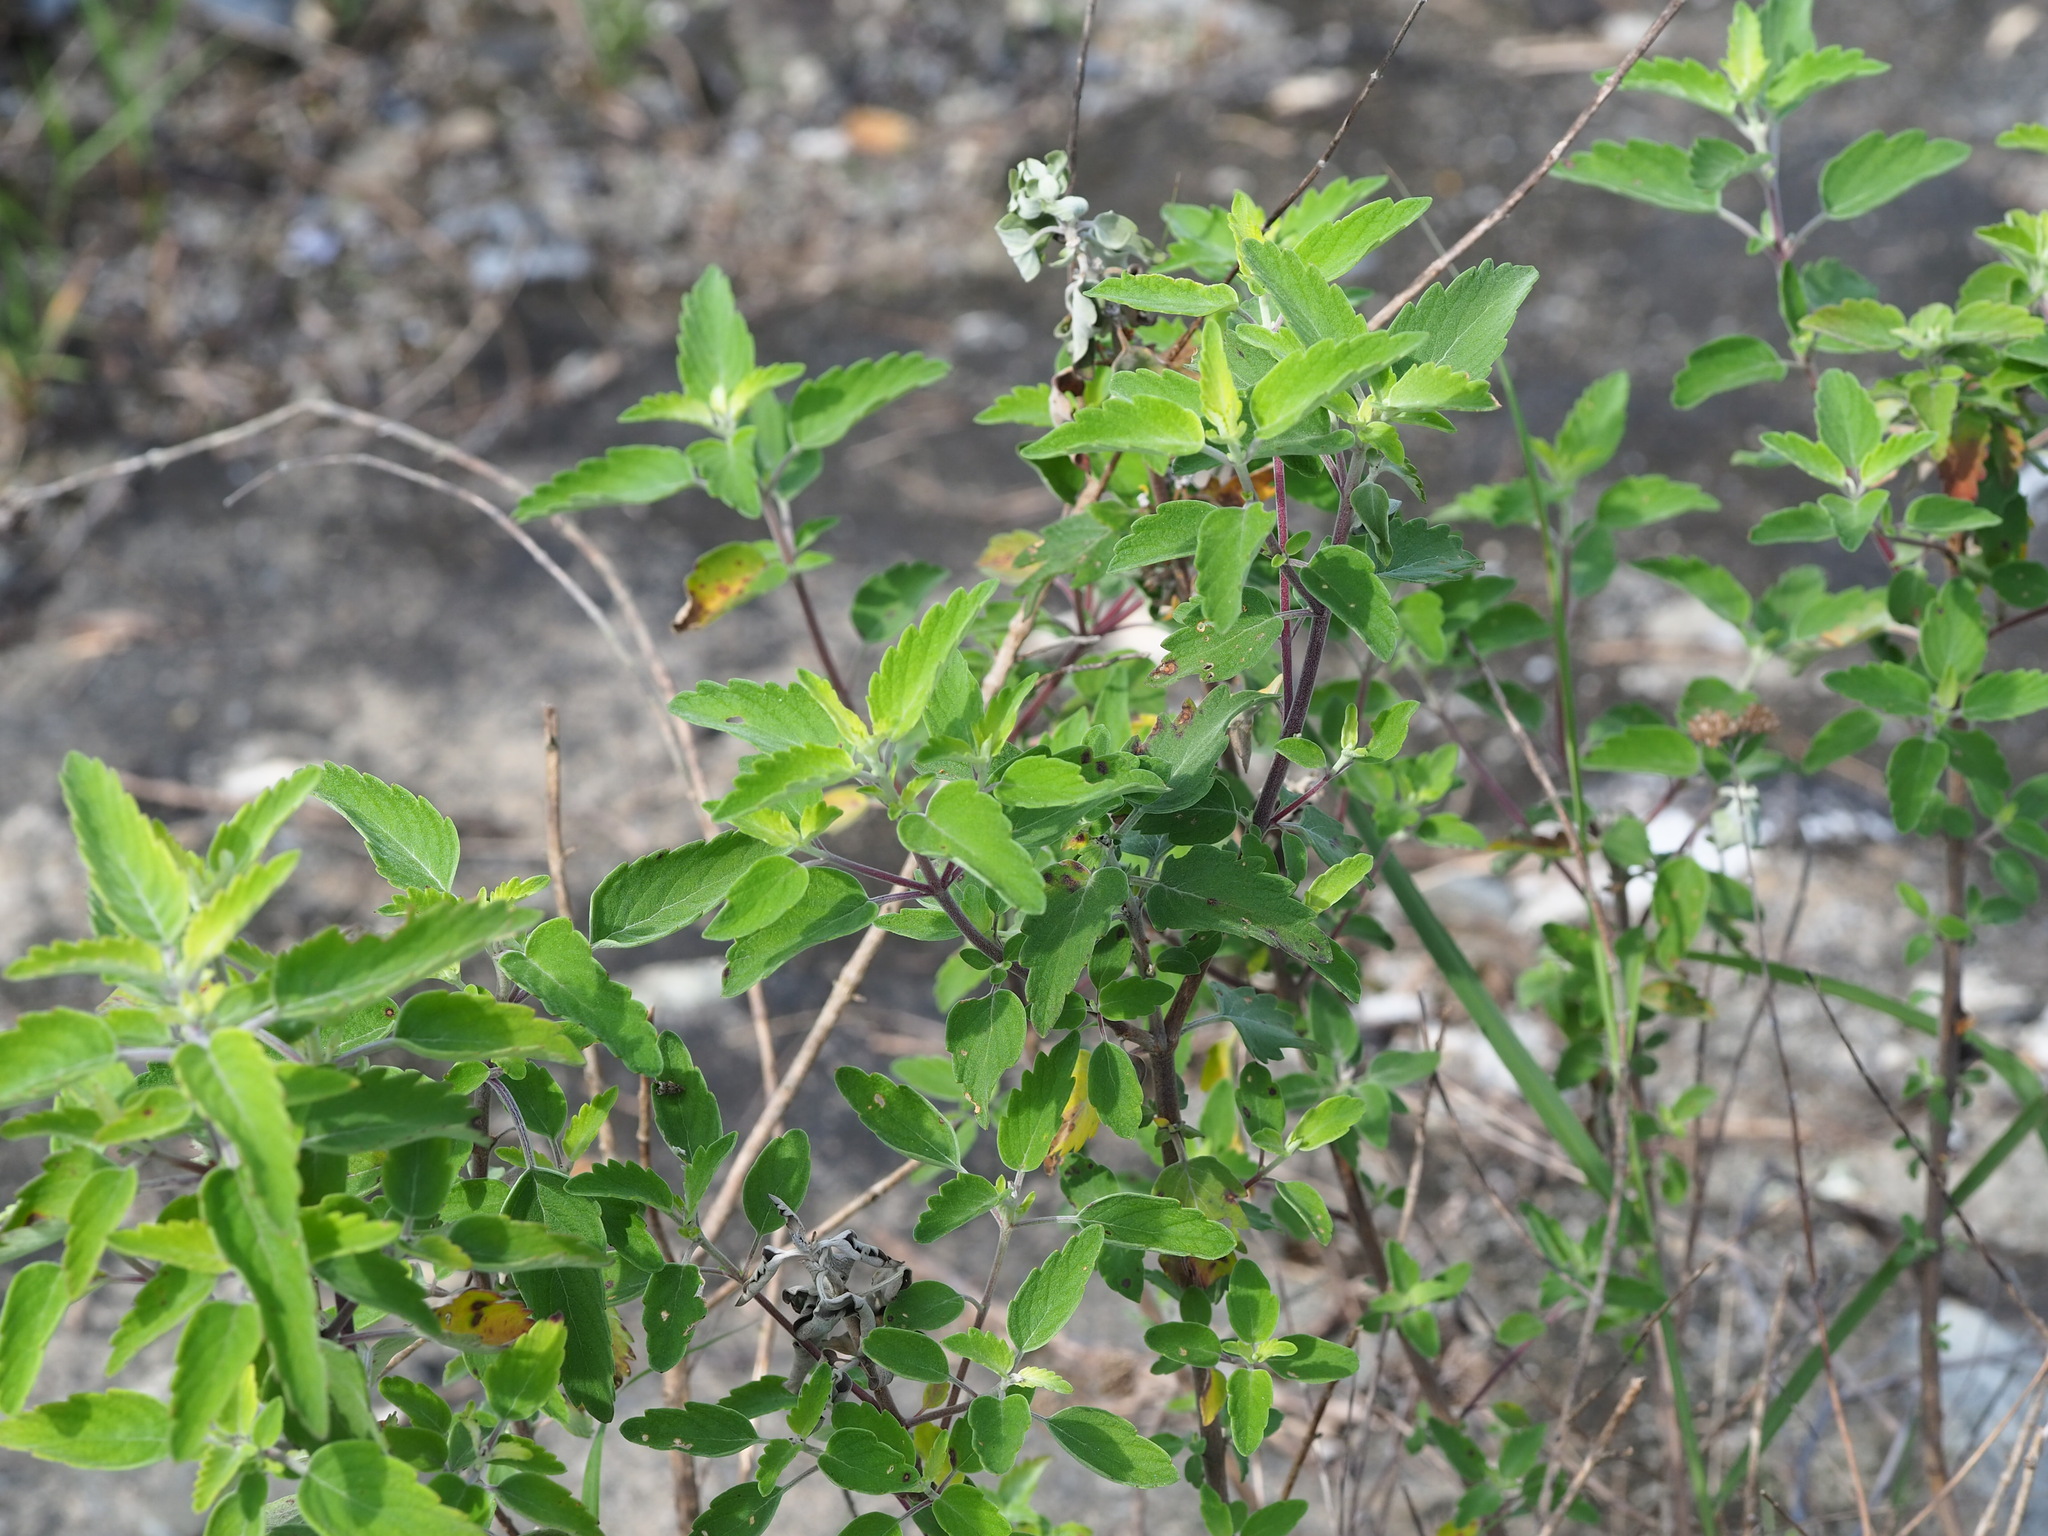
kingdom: Plantae
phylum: Tracheophyta
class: Magnoliopsida
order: Lamiales
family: Lamiaceae
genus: Caryopteris
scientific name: Caryopteris incana
